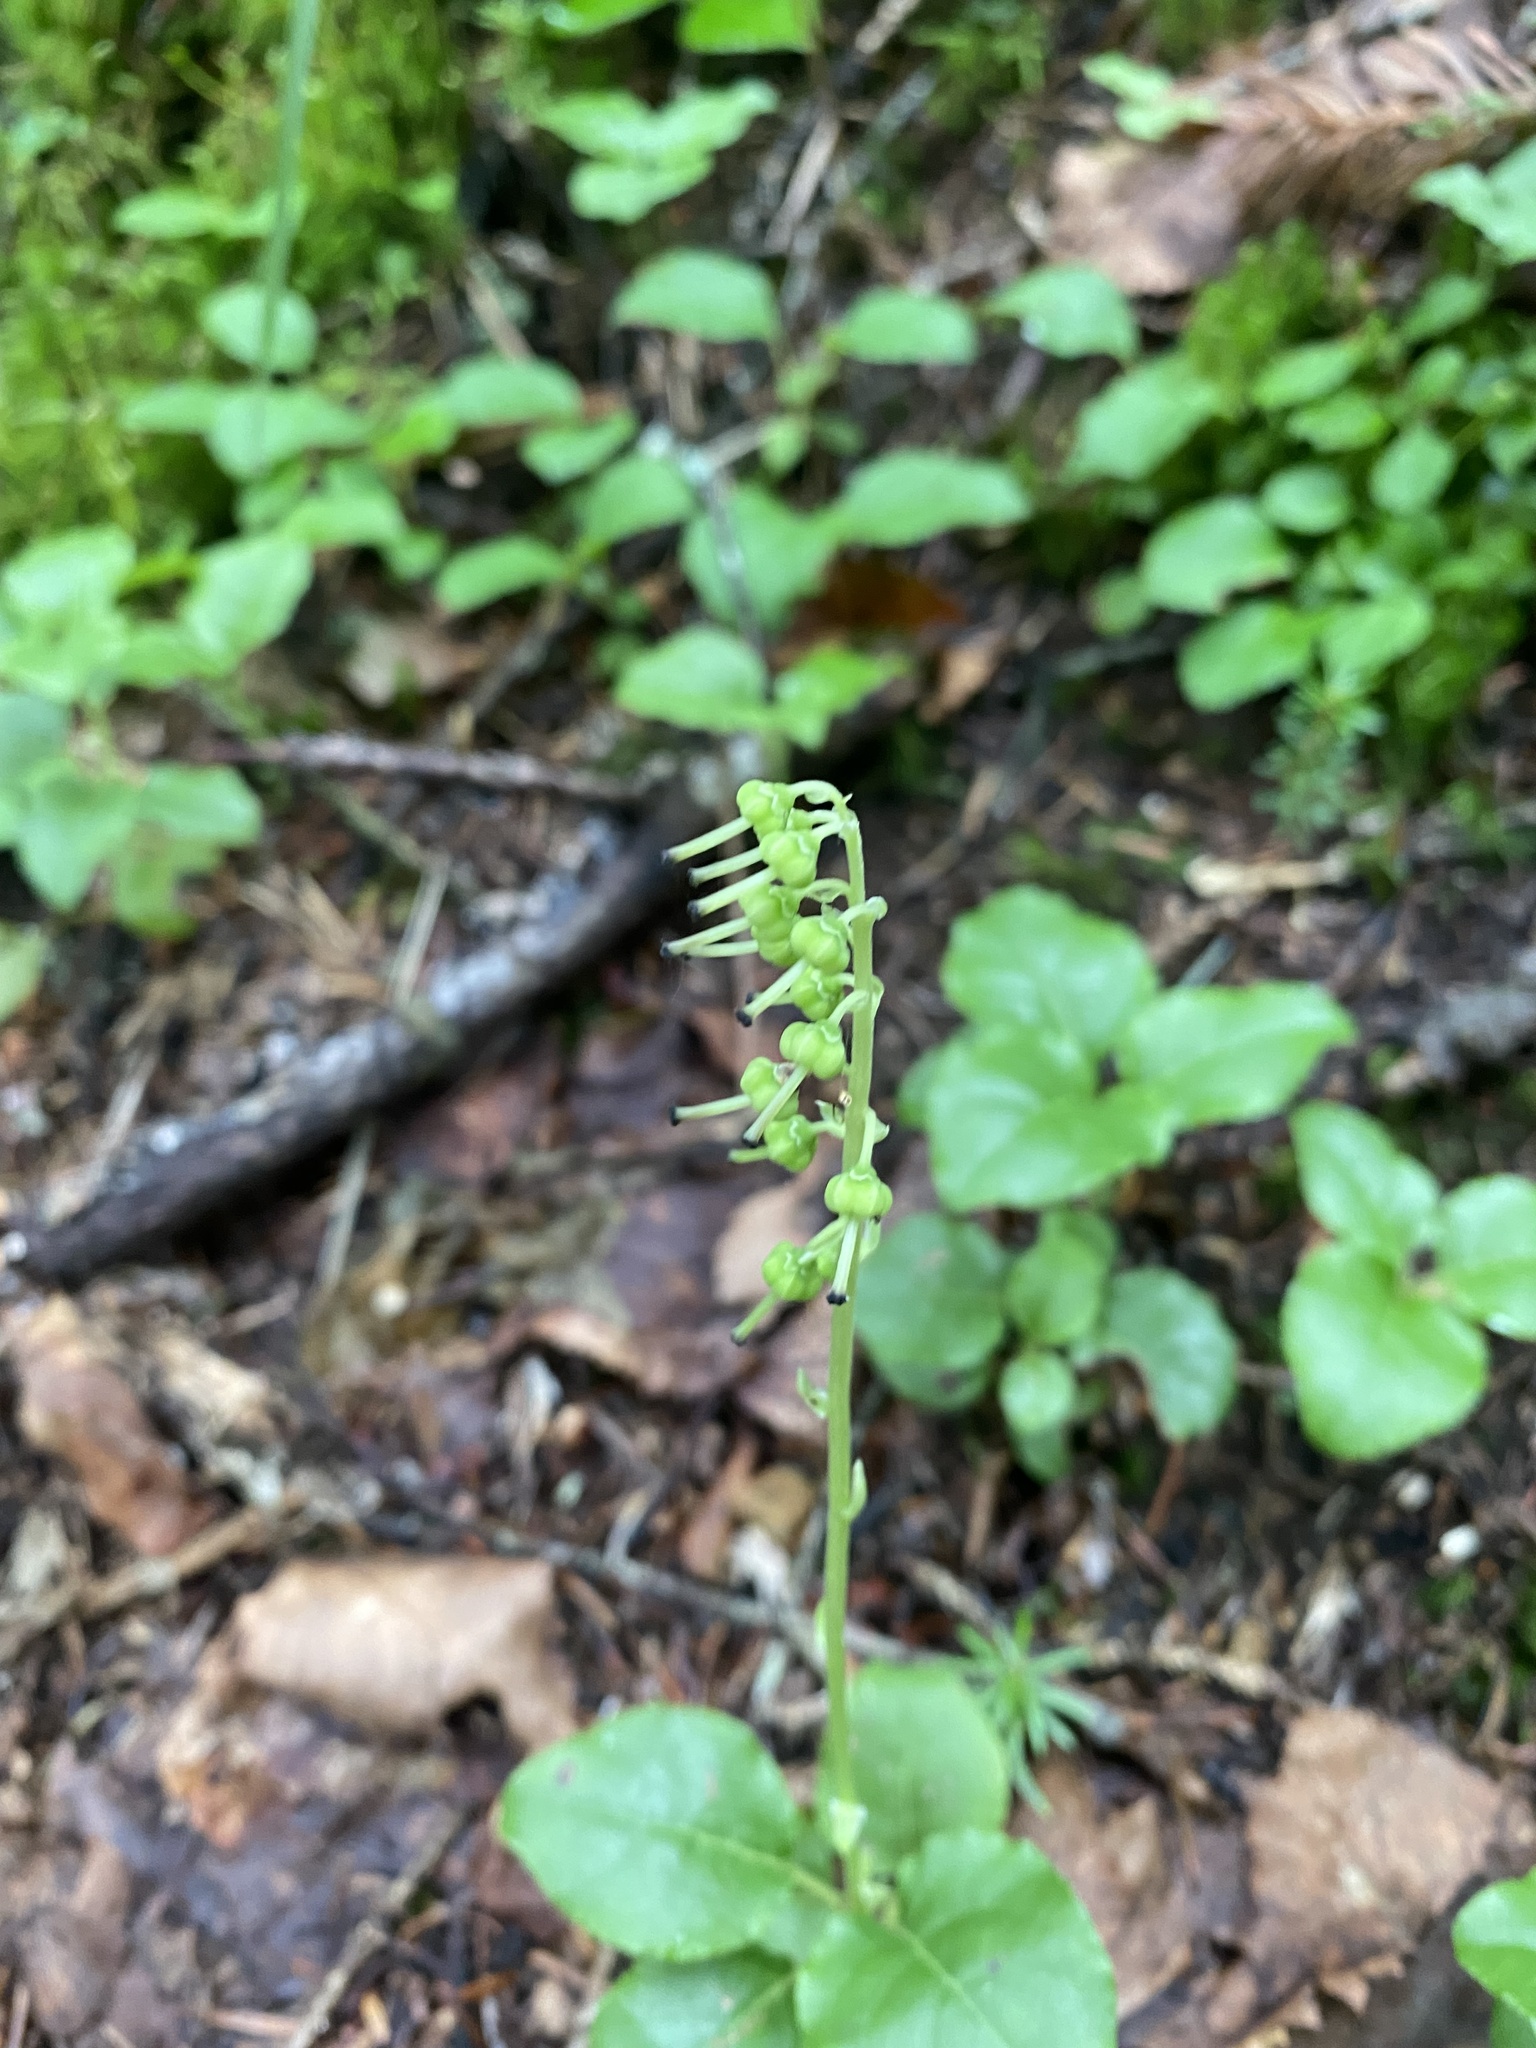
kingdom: Plantae
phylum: Tracheophyta
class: Magnoliopsida
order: Ericales
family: Ericaceae
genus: Orthilia
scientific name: Orthilia secunda
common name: One-sided orthilia
